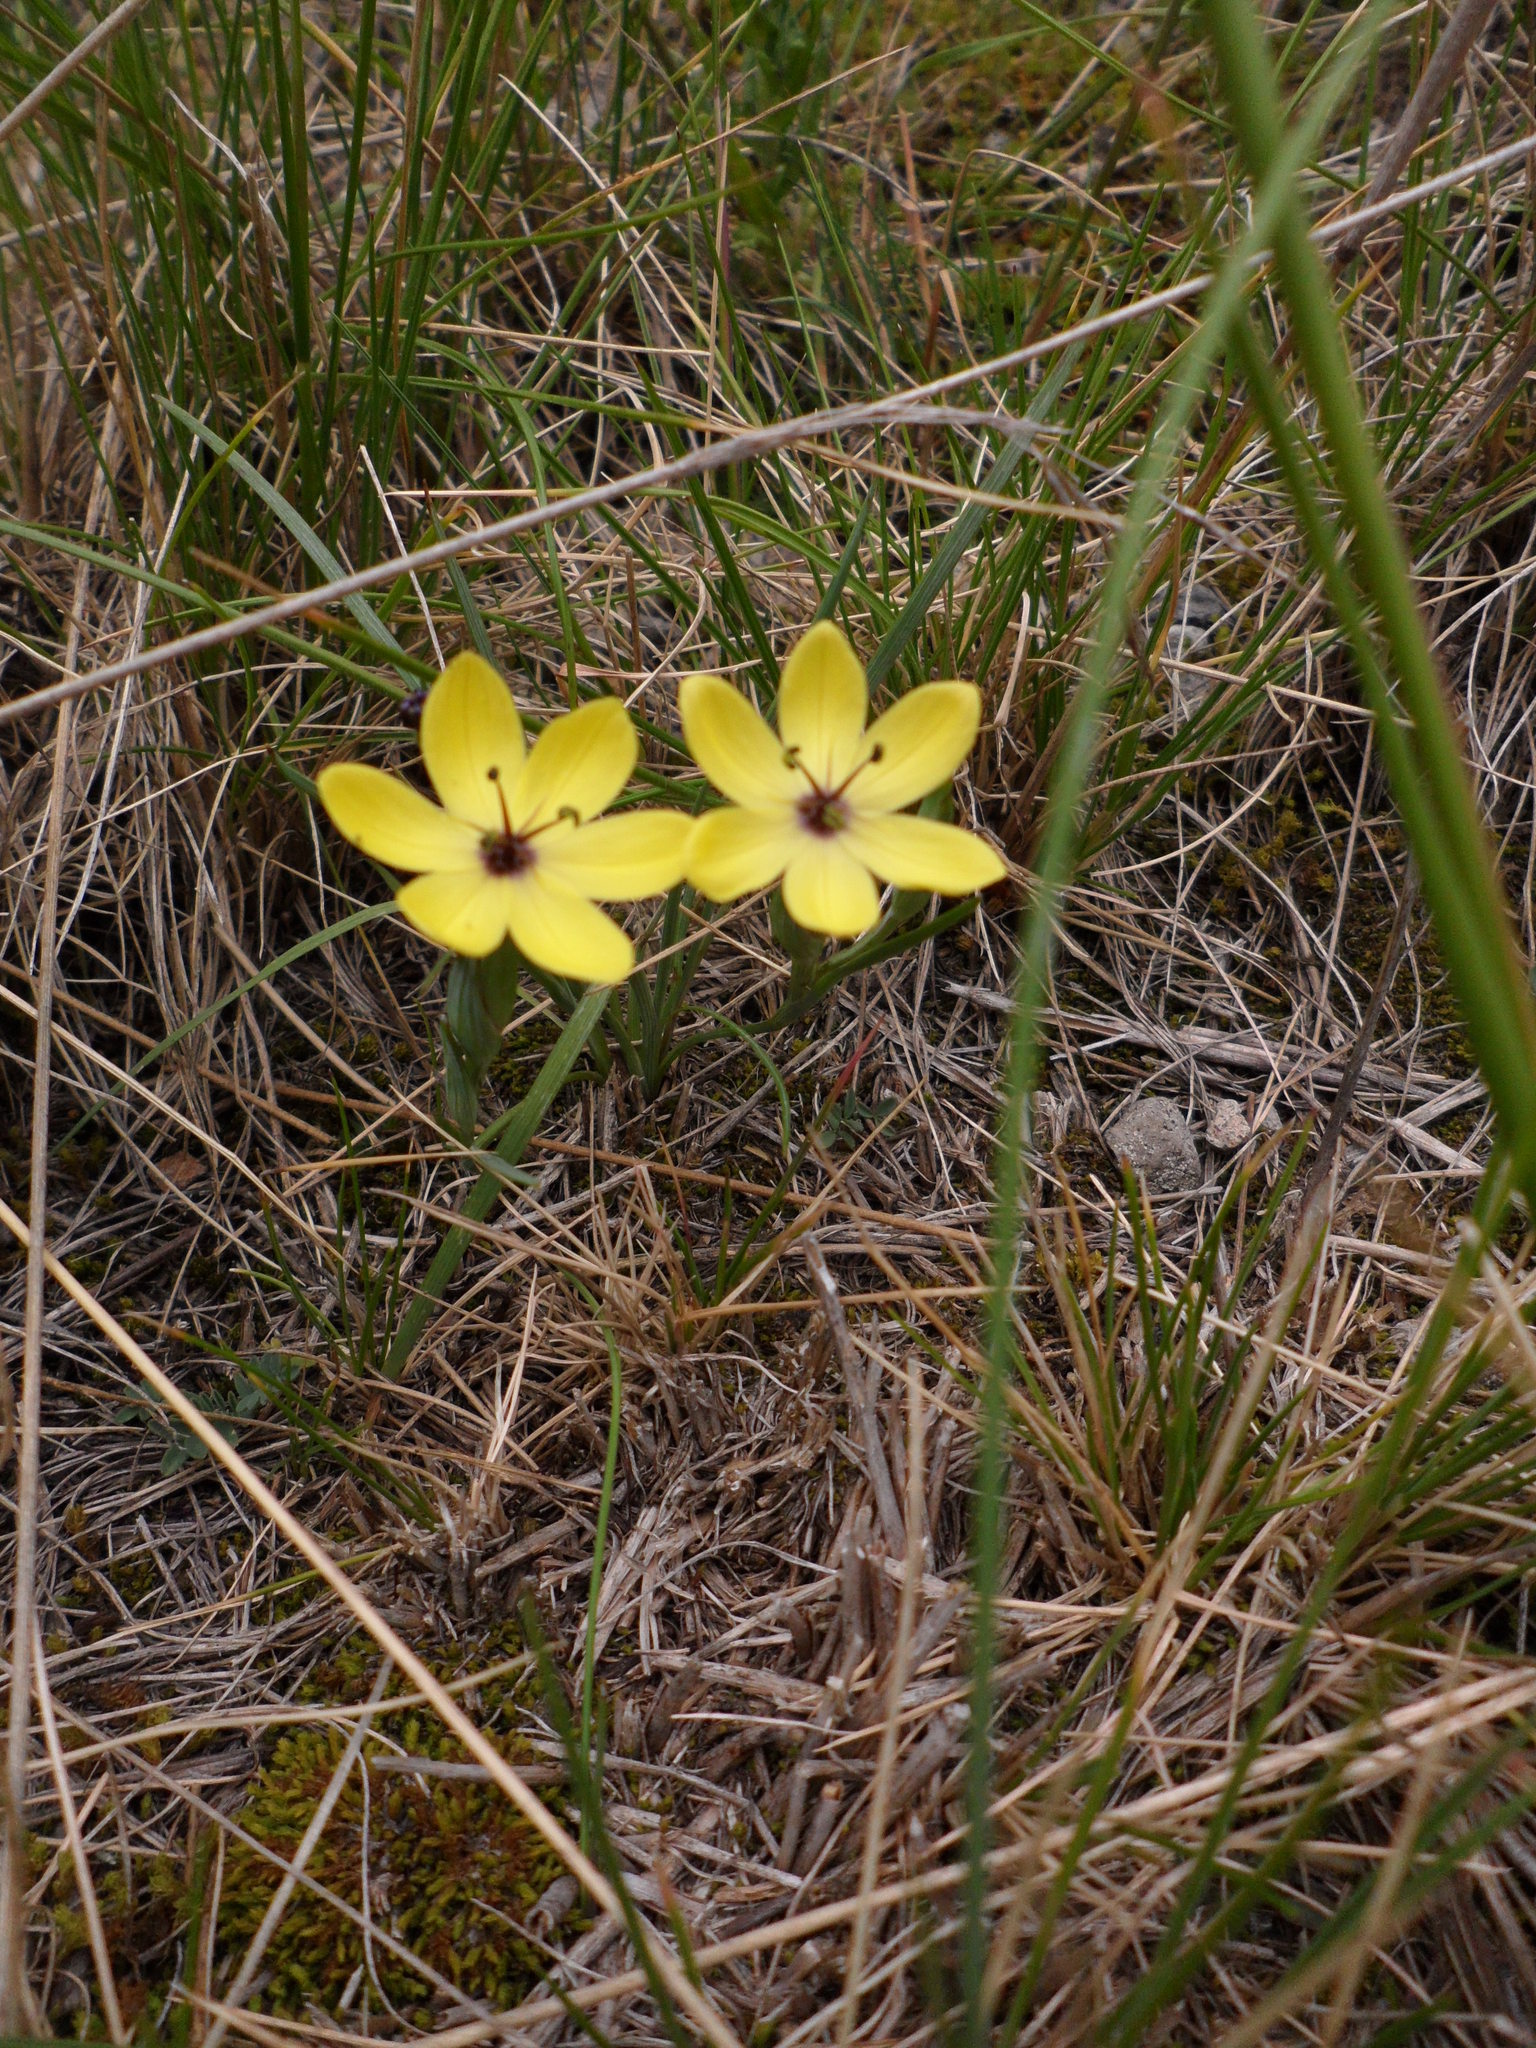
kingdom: Plantae
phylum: Tracheophyta
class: Liliopsida
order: Asparagales
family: Iridaceae
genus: Sisyrinchium
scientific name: Sisyrinchium conzattii
